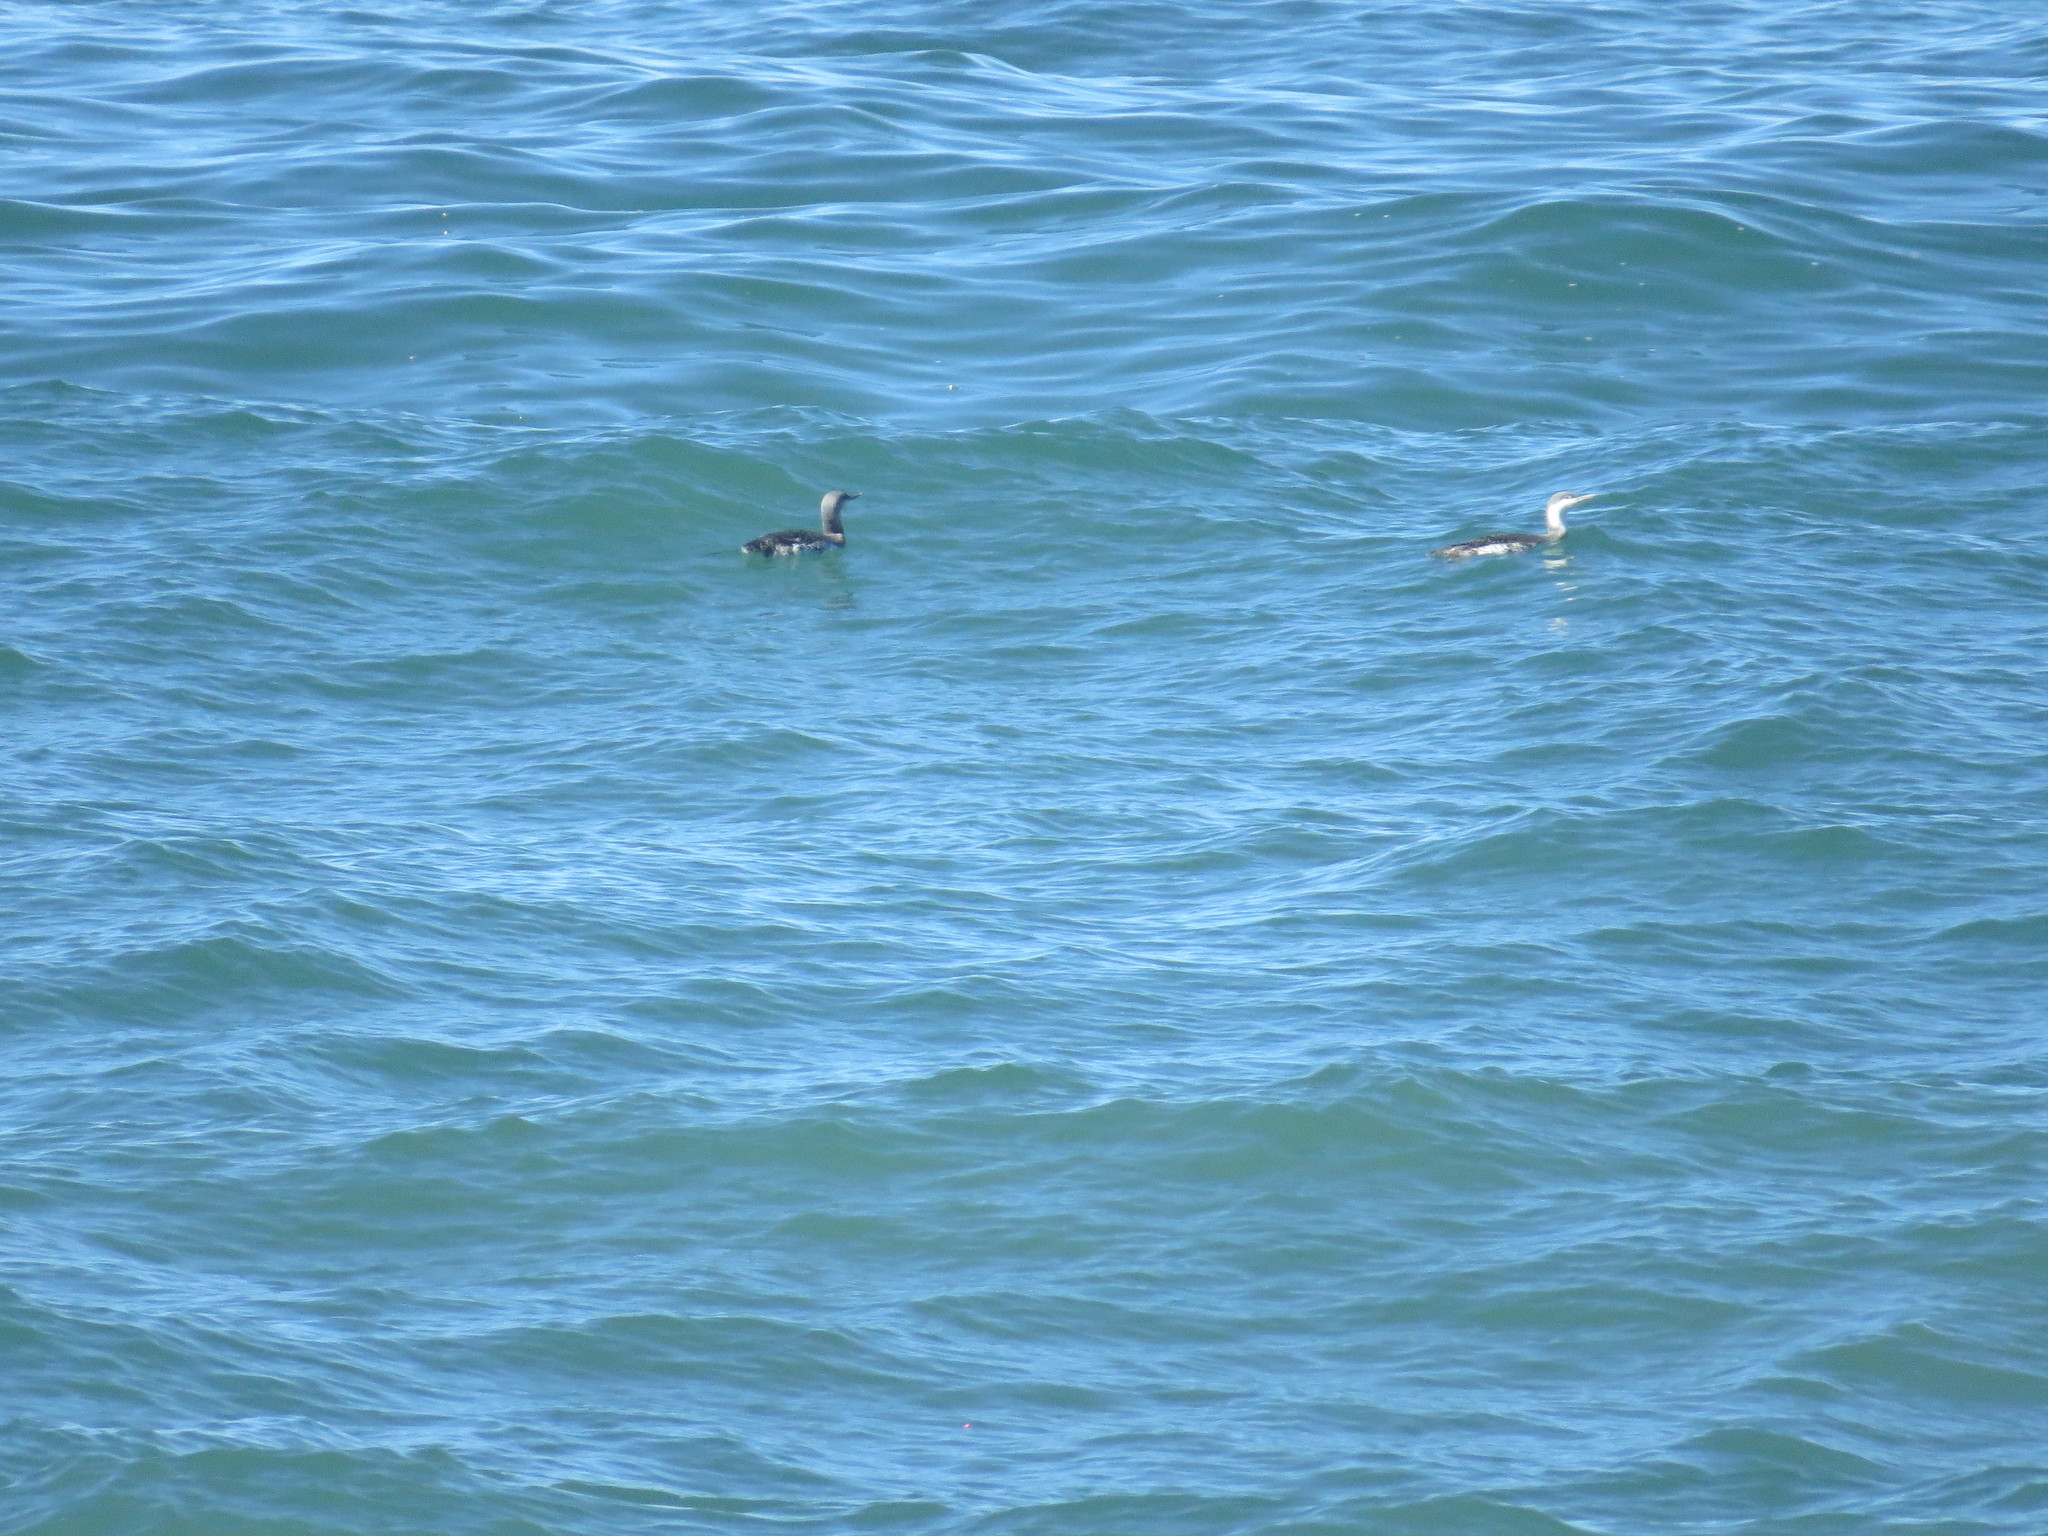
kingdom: Animalia
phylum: Chordata
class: Aves
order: Gaviiformes
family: Gaviidae
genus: Gavia
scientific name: Gavia stellata
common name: Red-throated loon
